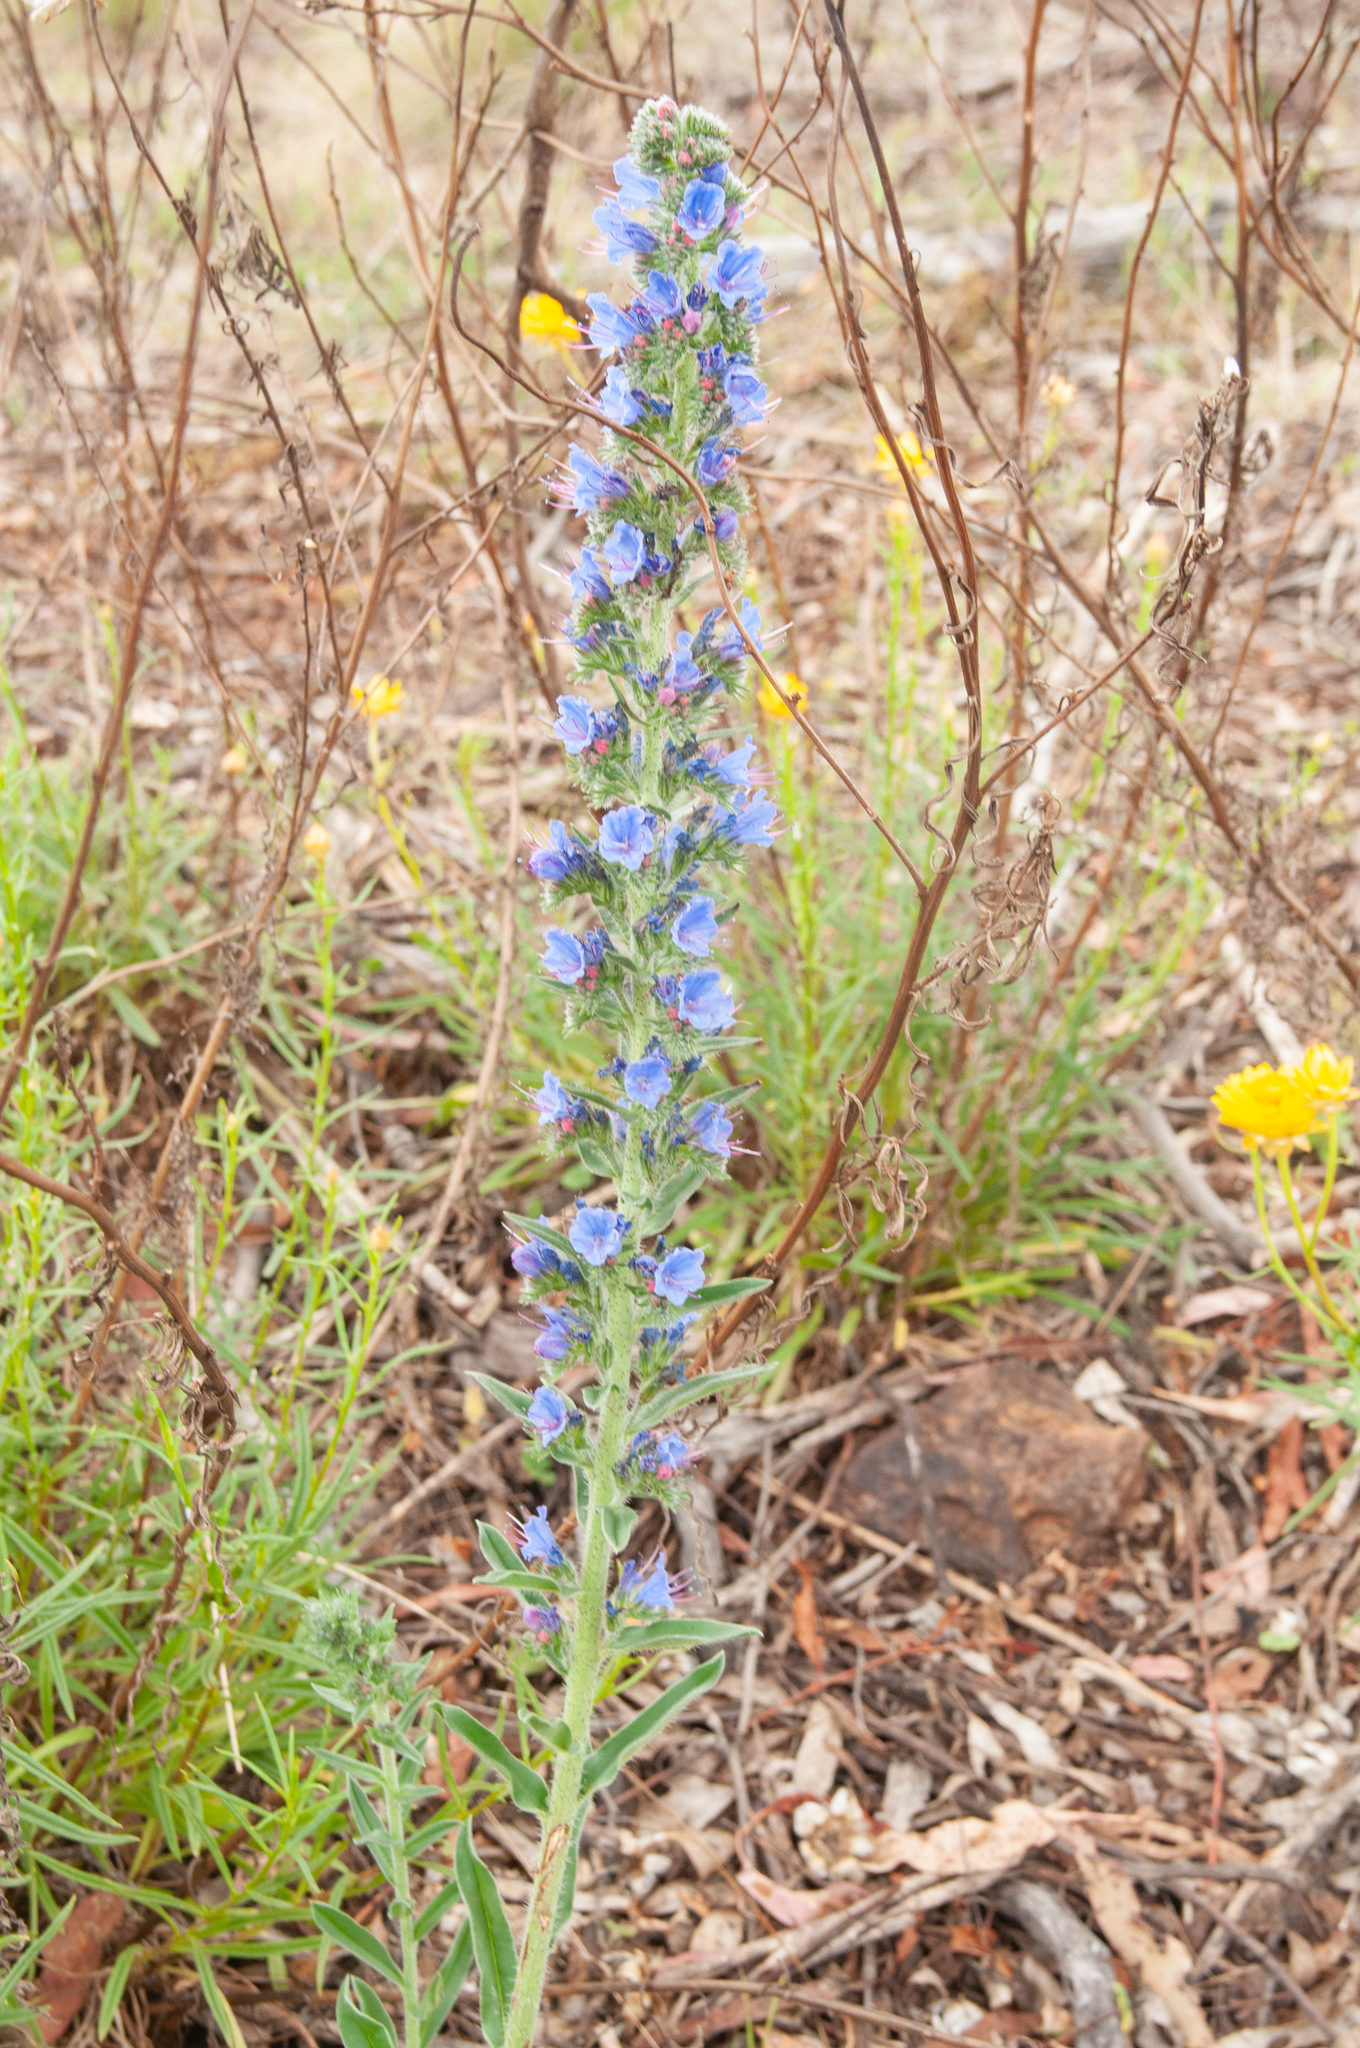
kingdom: Plantae
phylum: Tracheophyta
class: Magnoliopsida
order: Boraginales
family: Boraginaceae
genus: Echium
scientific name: Echium vulgare
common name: Common viper's bugloss
